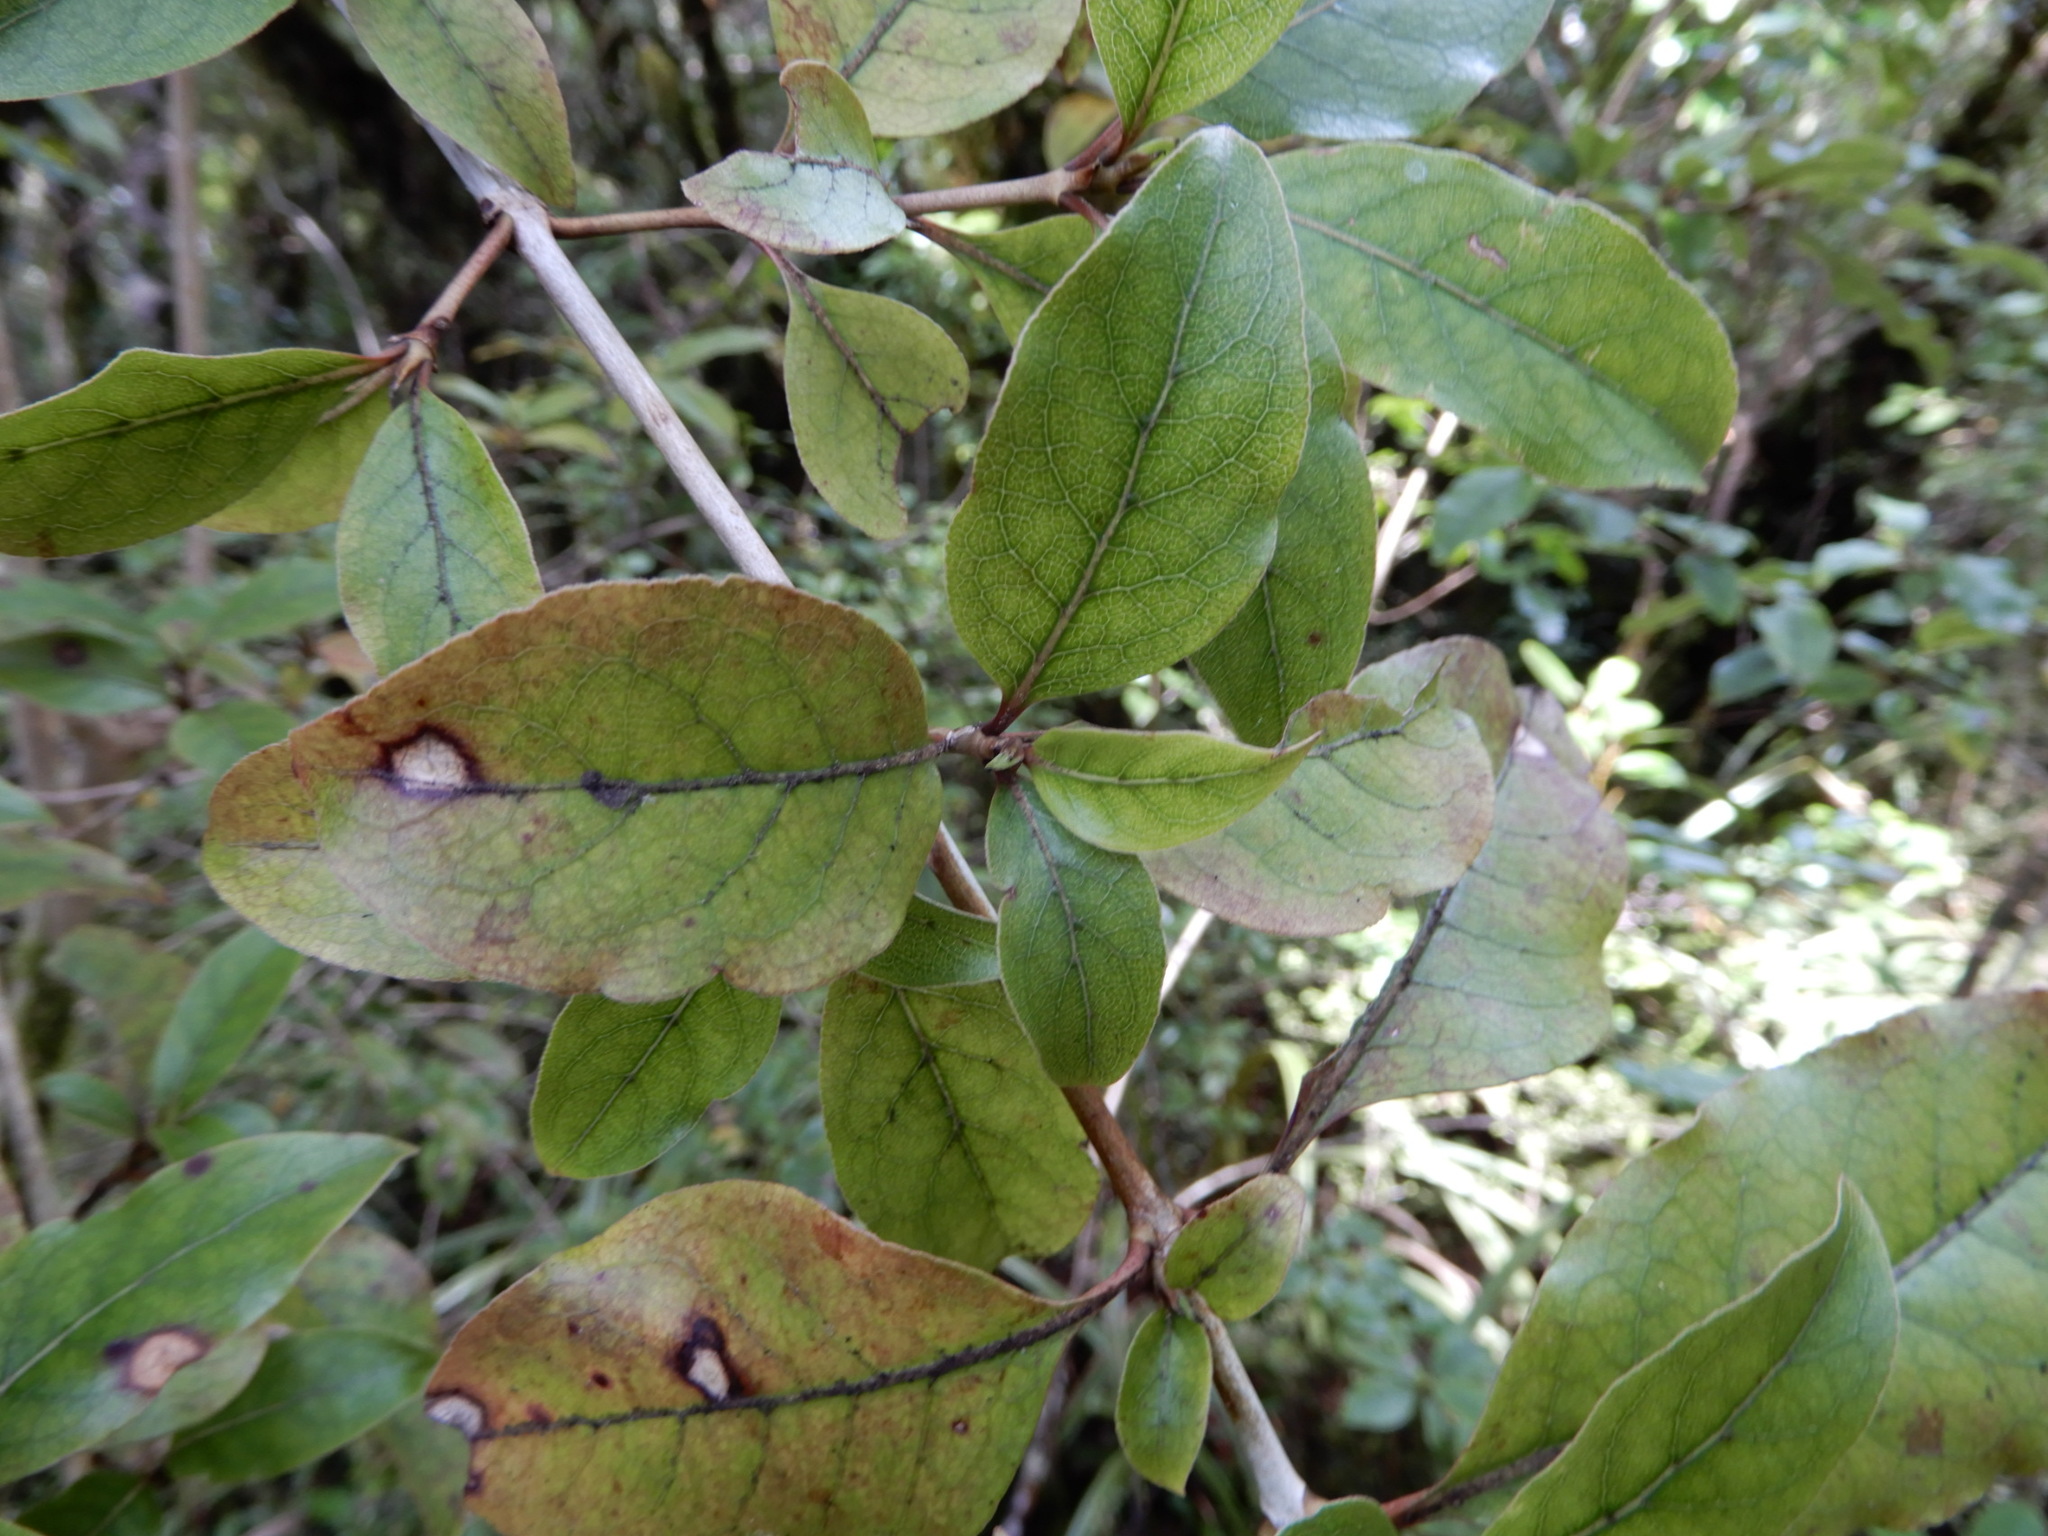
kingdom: Plantae
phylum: Tracheophyta
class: Magnoliopsida
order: Gentianales
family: Rubiaceae
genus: Coprosma
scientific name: Coprosma tenuifolia
